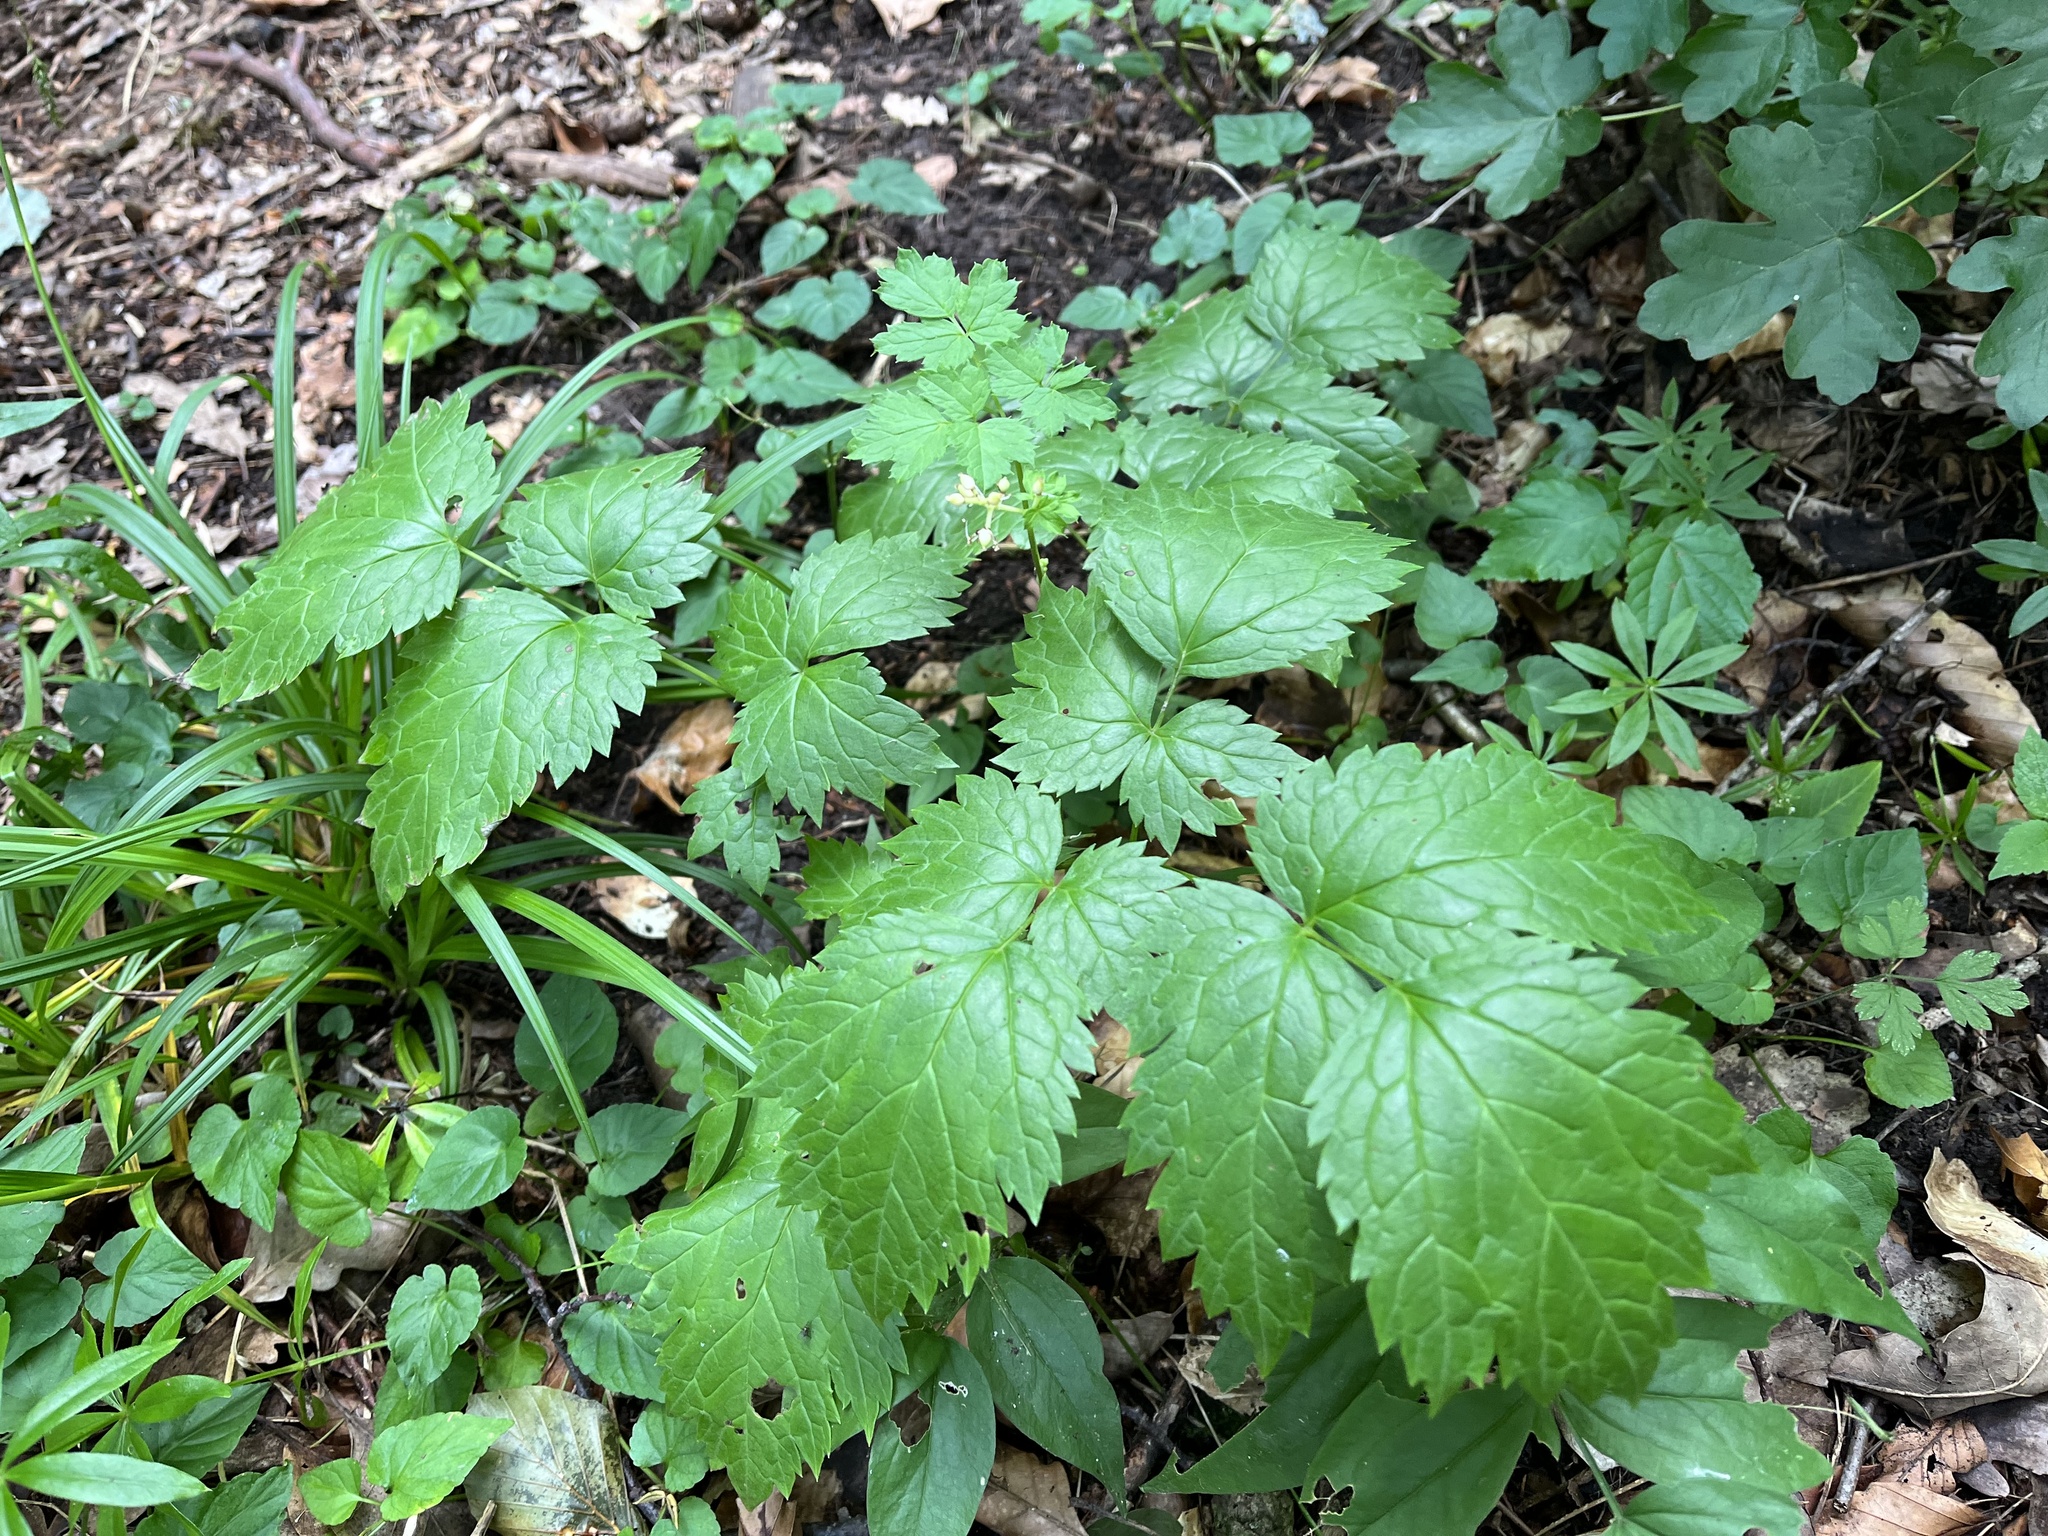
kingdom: Plantae
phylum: Tracheophyta
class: Magnoliopsida
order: Ranunculales
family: Ranunculaceae
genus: Actaea
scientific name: Actaea spicata
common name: Baneberry
